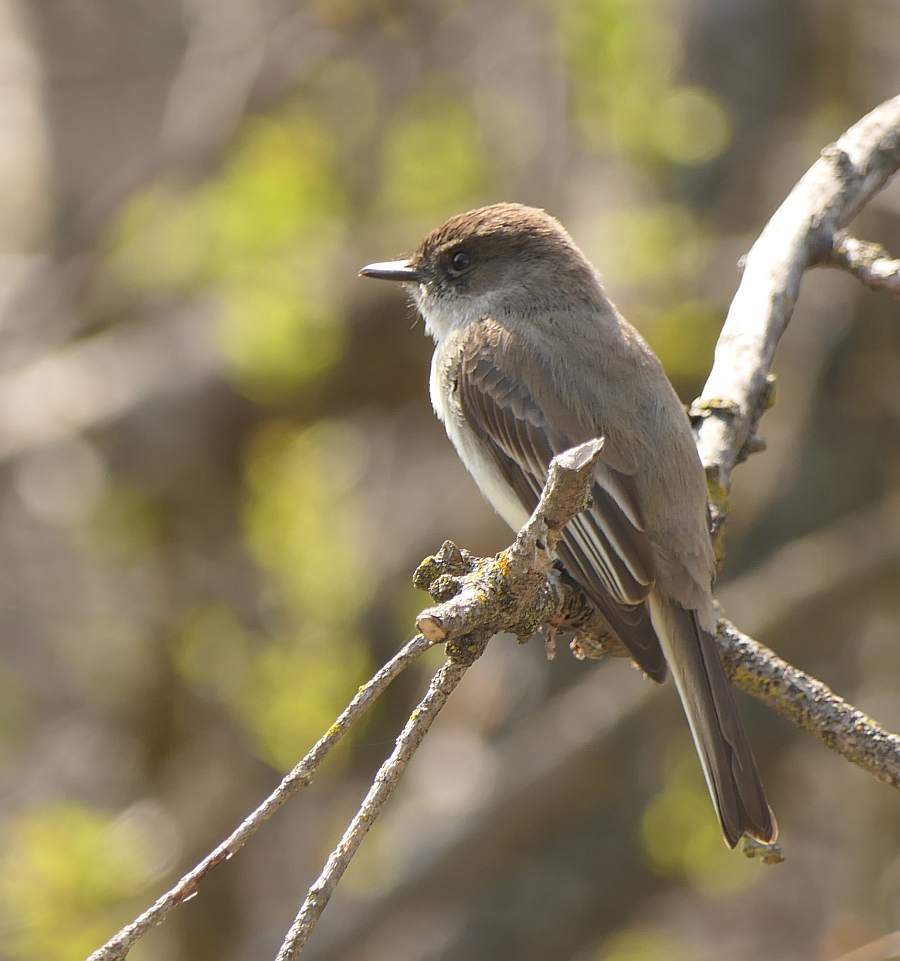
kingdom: Animalia
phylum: Chordata
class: Aves
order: Passeriformes
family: Tyrannidae
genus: Sayornis
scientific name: Sayornis phoebe
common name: Eastern phoebe
